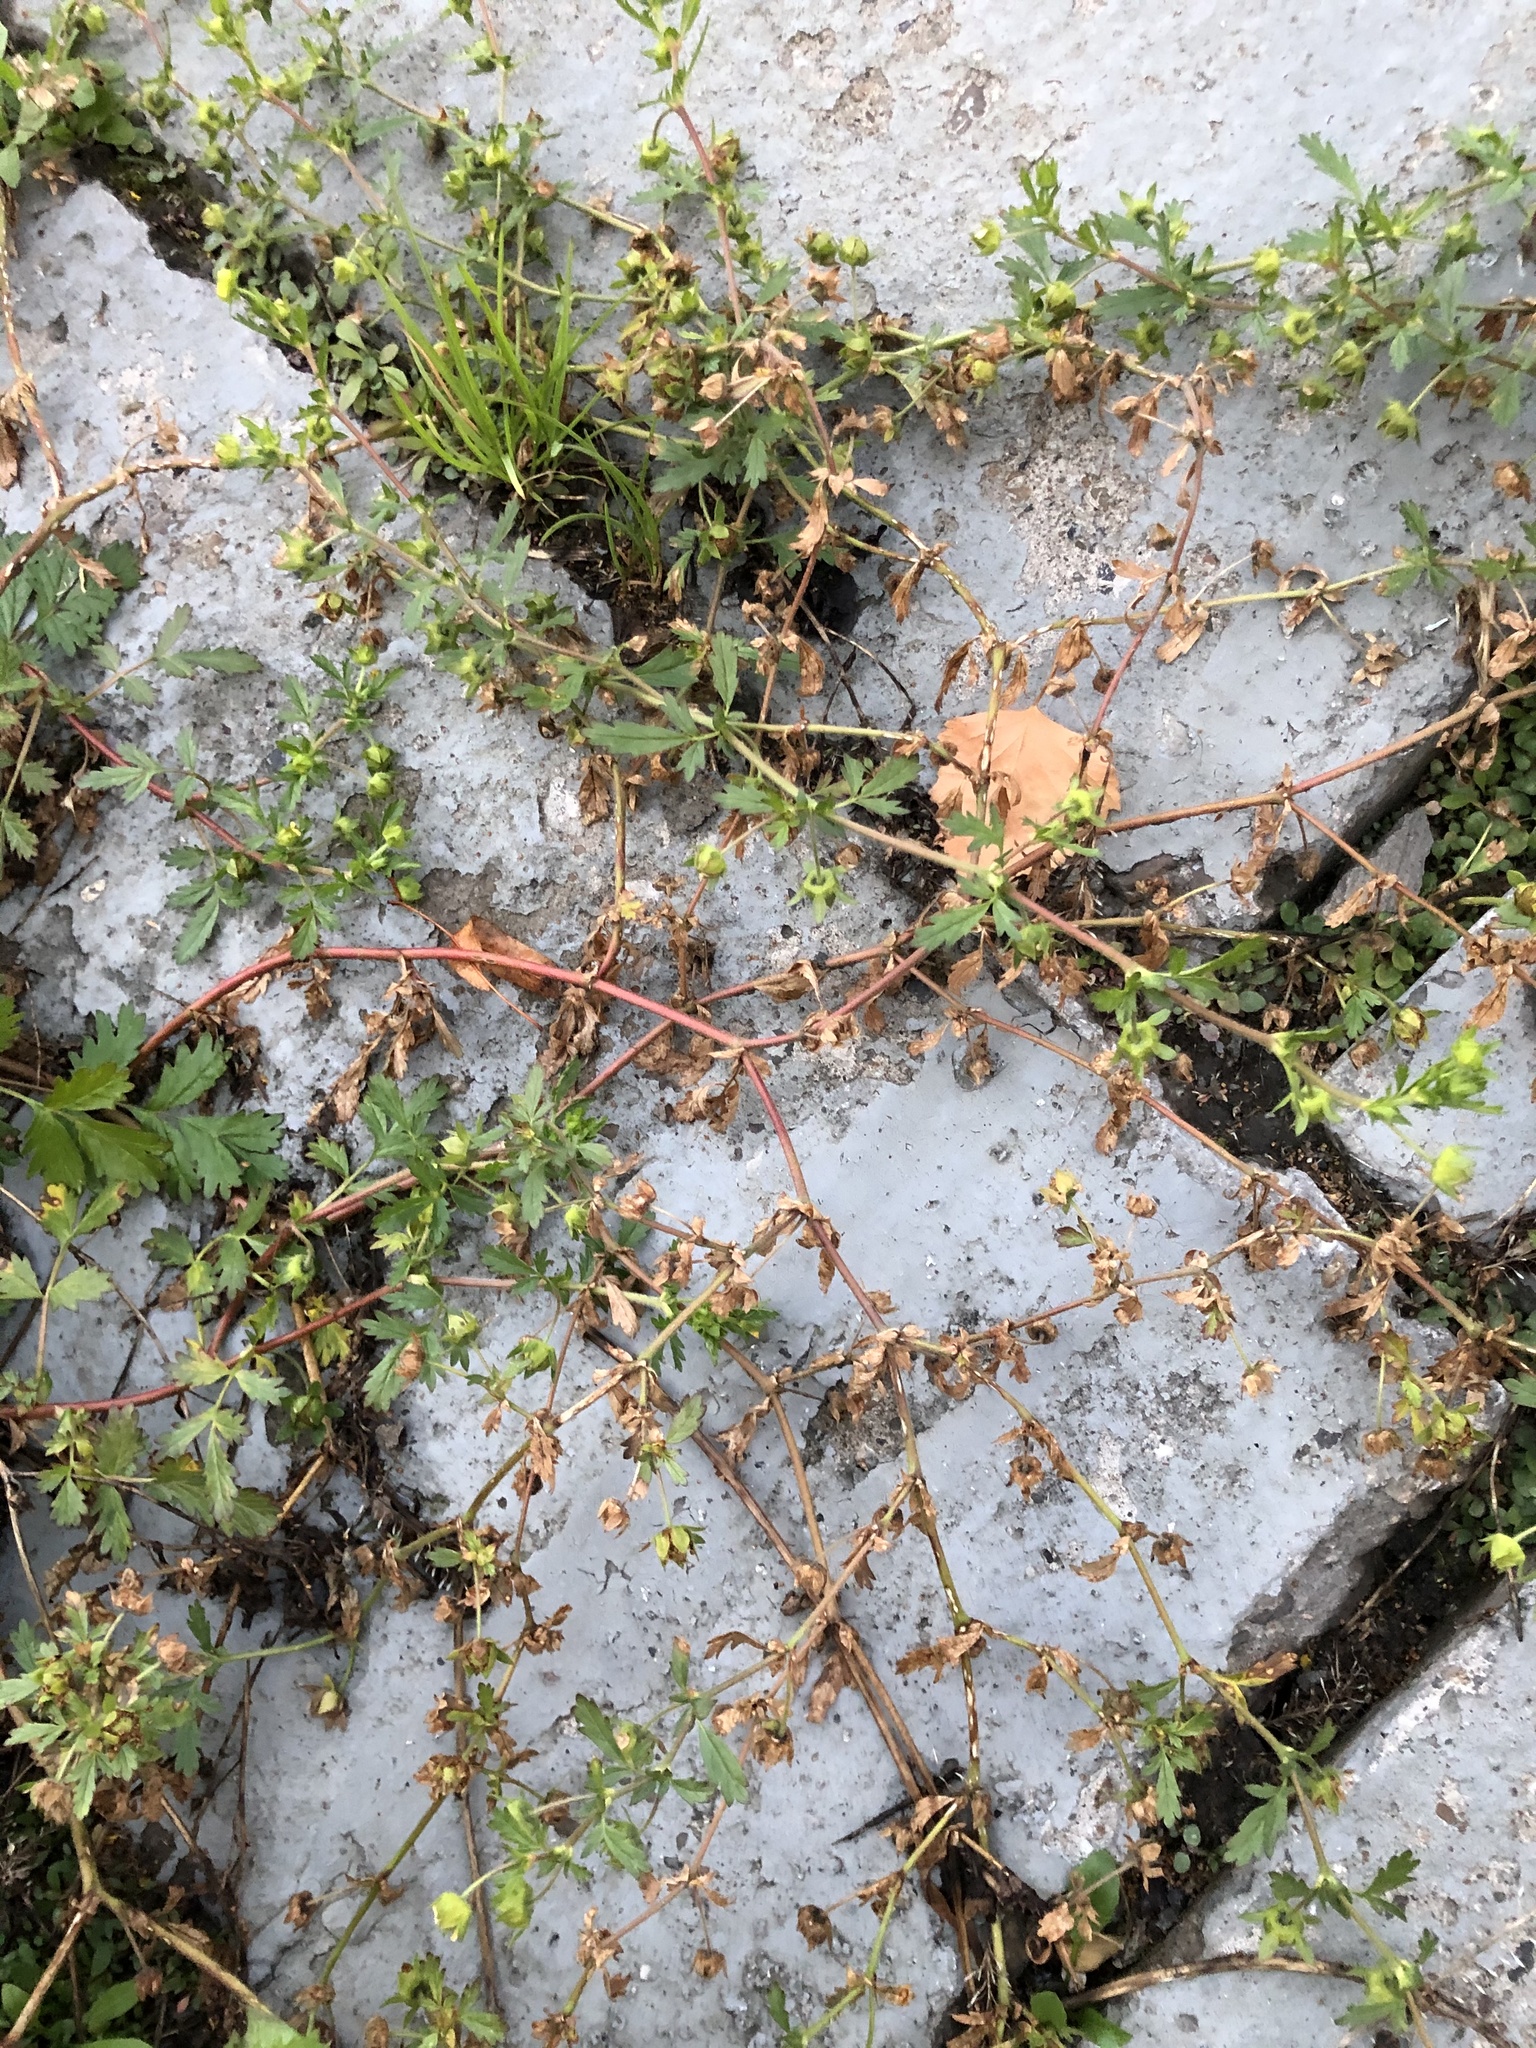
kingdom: Plantae
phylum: Tracheophyta
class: Magnoliopsida
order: Rosales
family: Rosaceae
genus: Potentilla
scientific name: Potentilla supina
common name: Prostrate cinquefoil
